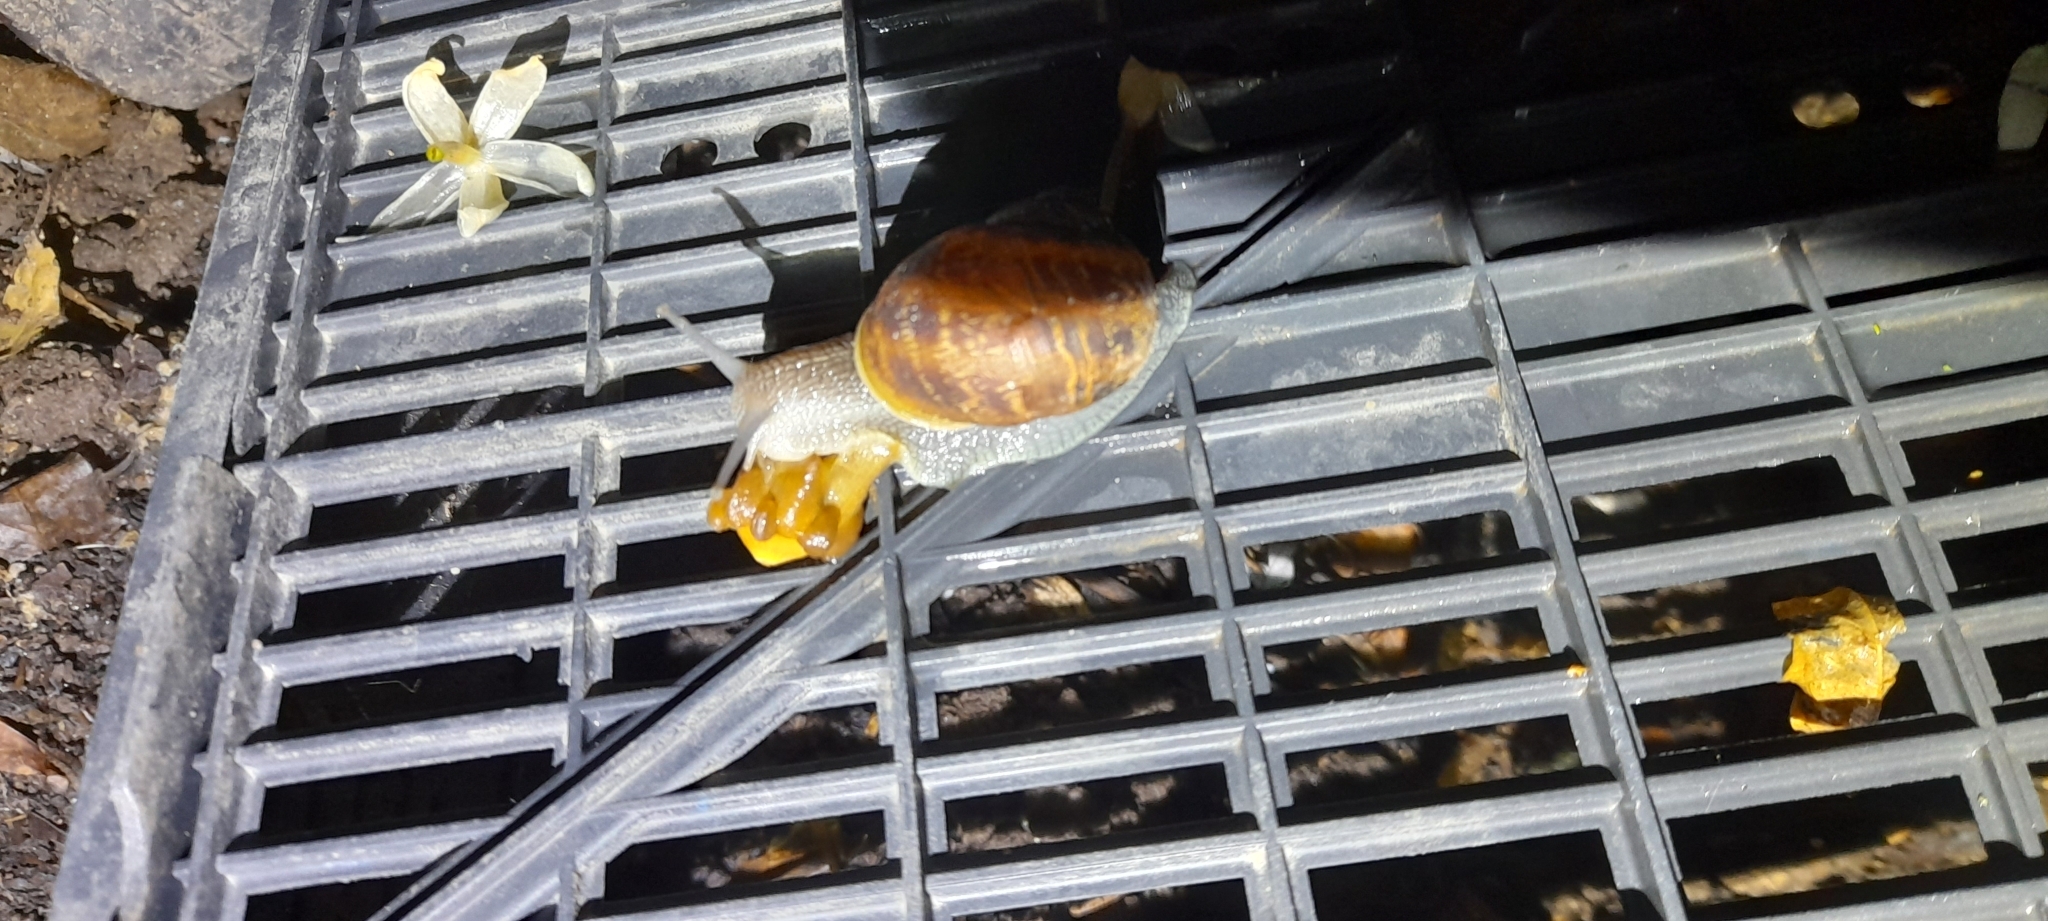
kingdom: Animalia
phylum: Mollusca
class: Gastropoda
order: Stylommatophora
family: Helicidae
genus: Cornu
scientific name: Cornu aspersum
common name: Brown garden snail
